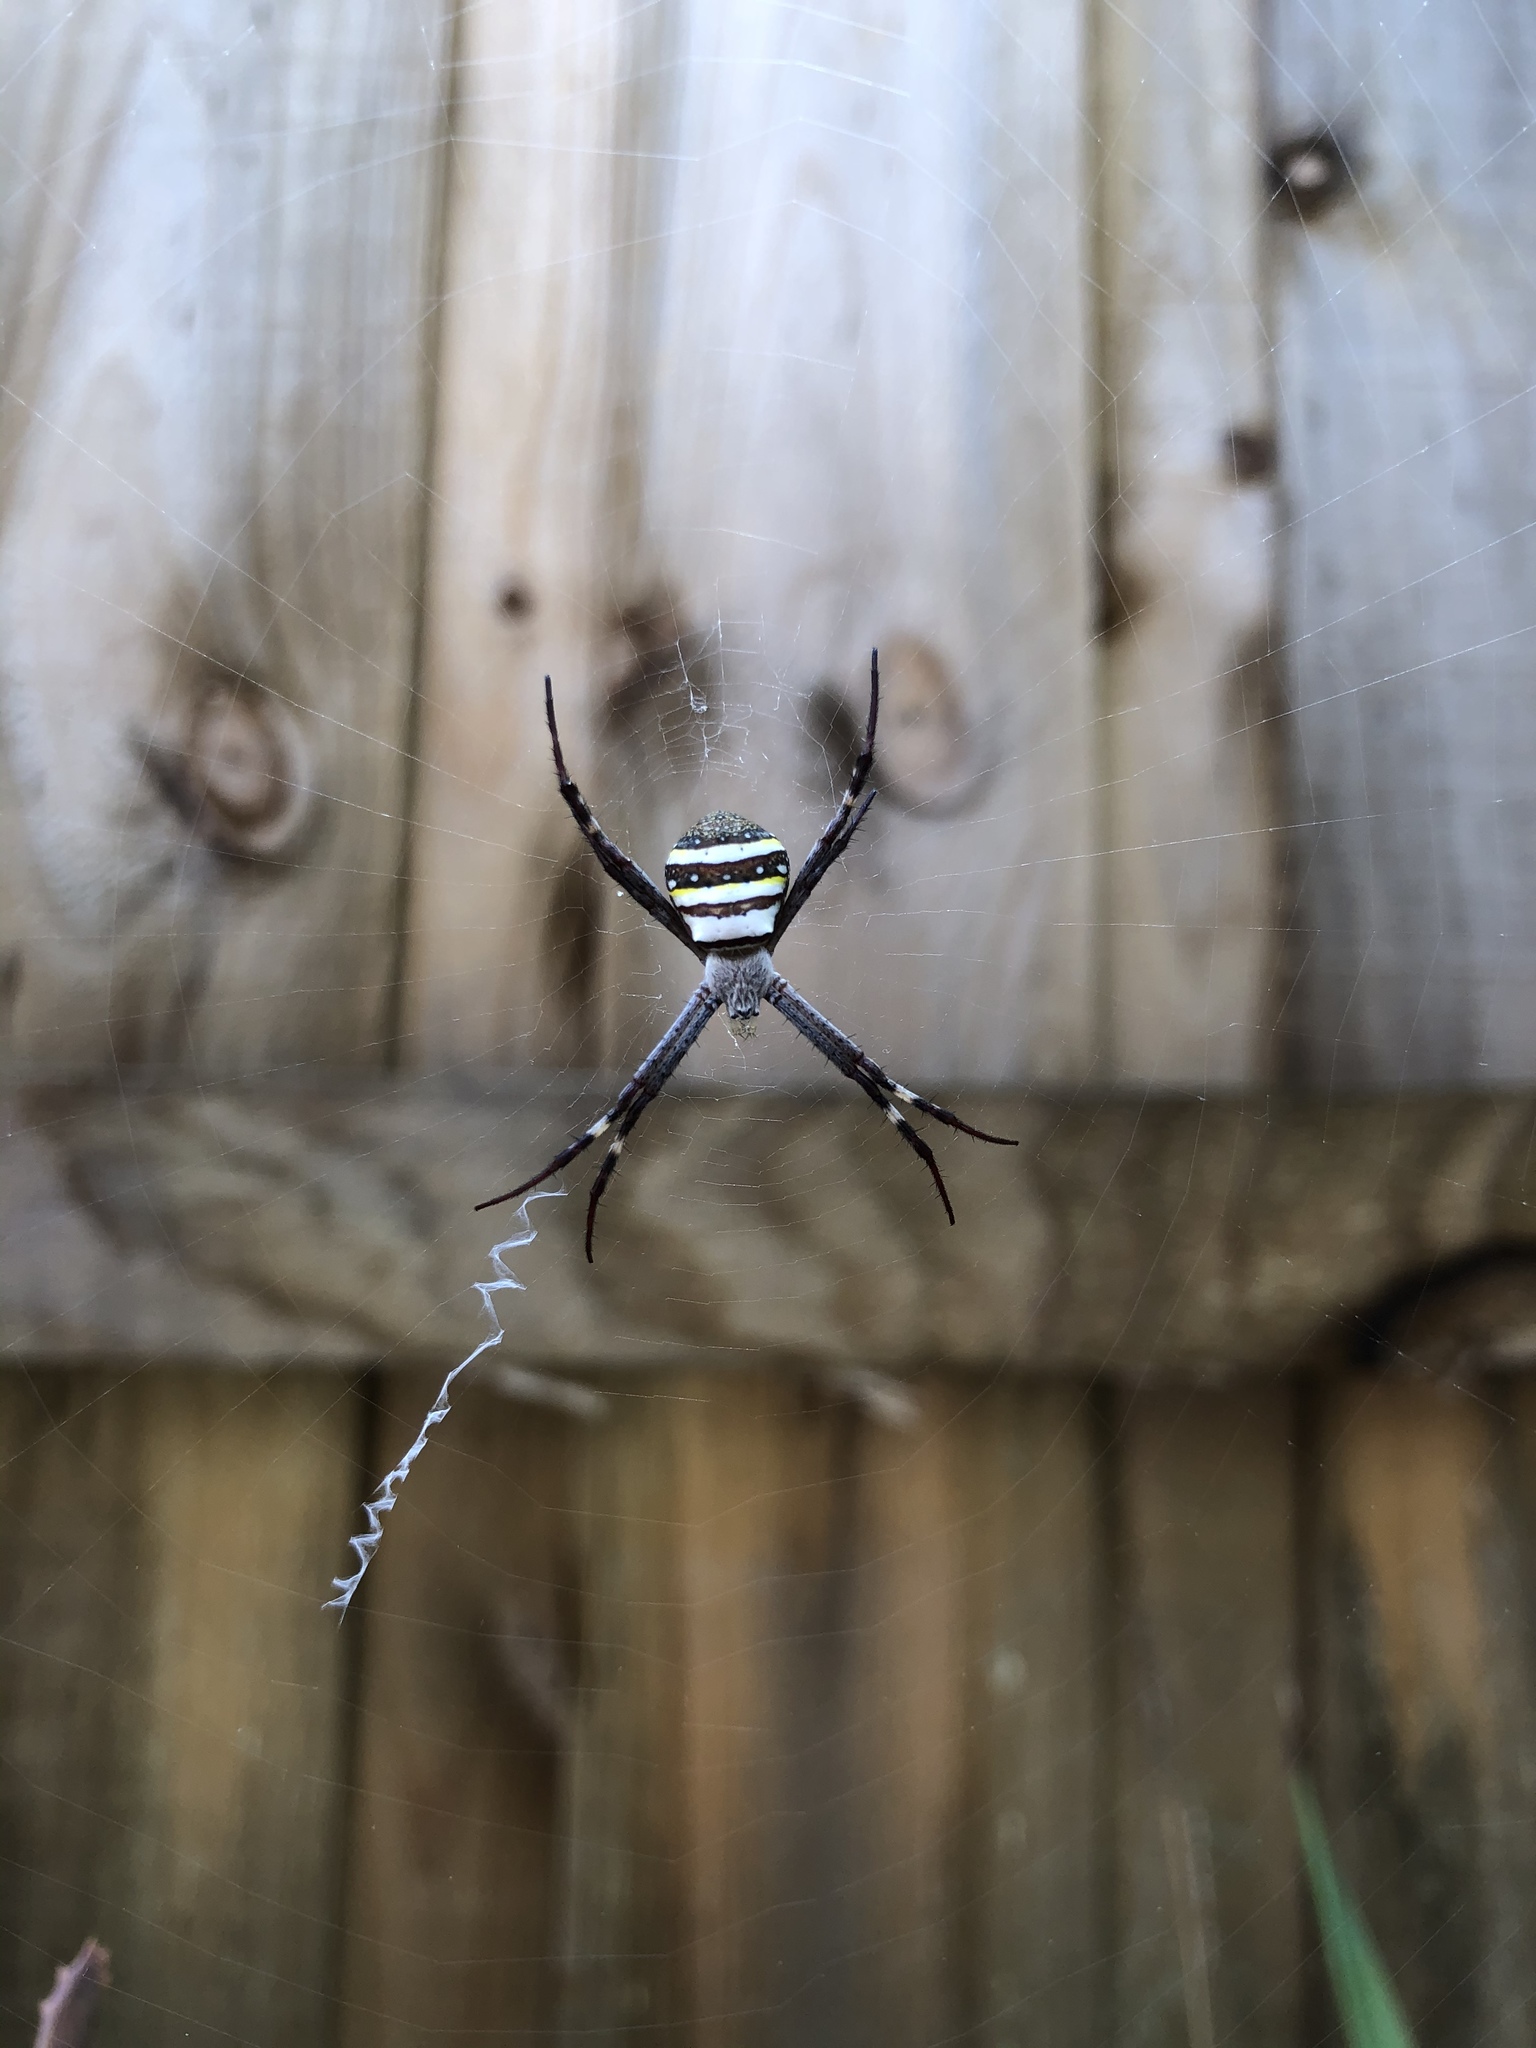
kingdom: Animalia
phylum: Arthropoda
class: Arachnida
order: Araneae
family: Araneidae
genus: Argiope
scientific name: Argiope keyserlingi
